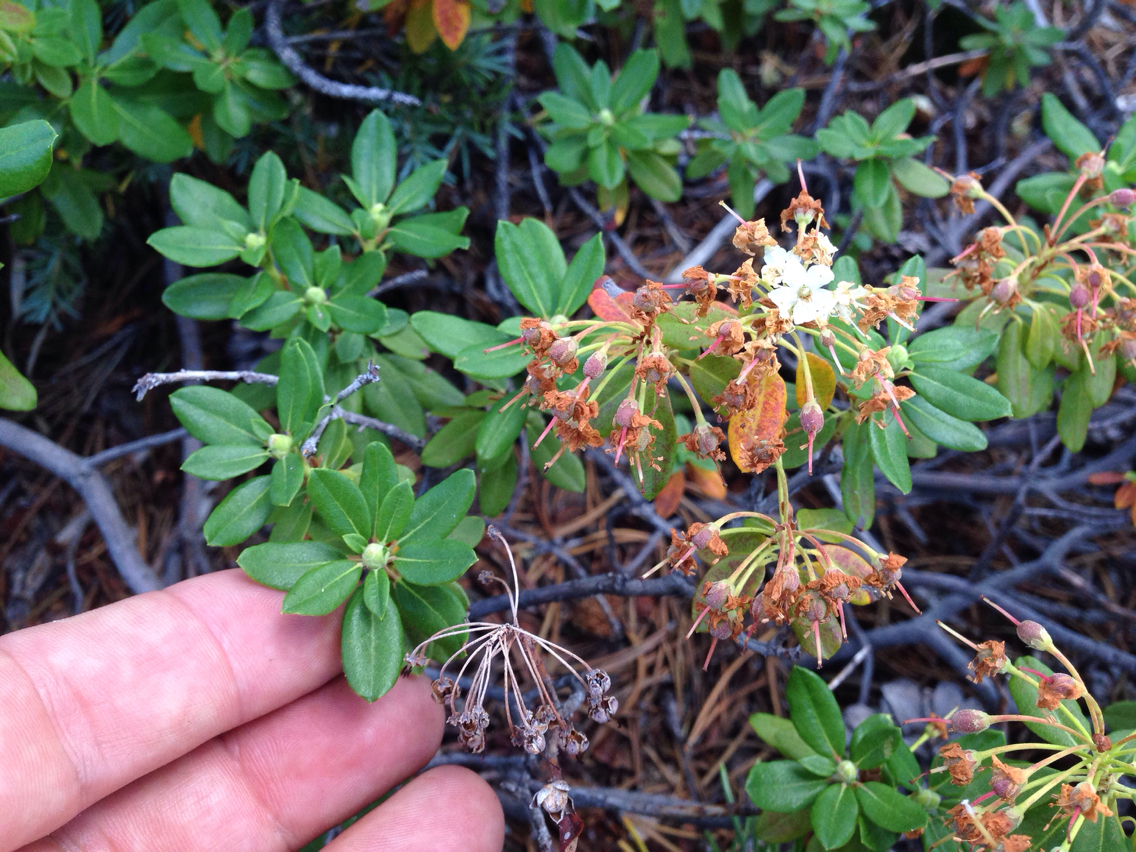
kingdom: Plantae
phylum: Tracheophyta
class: Magnoliopsida
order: Ericales
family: Ericaceae
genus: Rhododendron
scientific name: Rhododendron columbianum
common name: Western labrador tea
